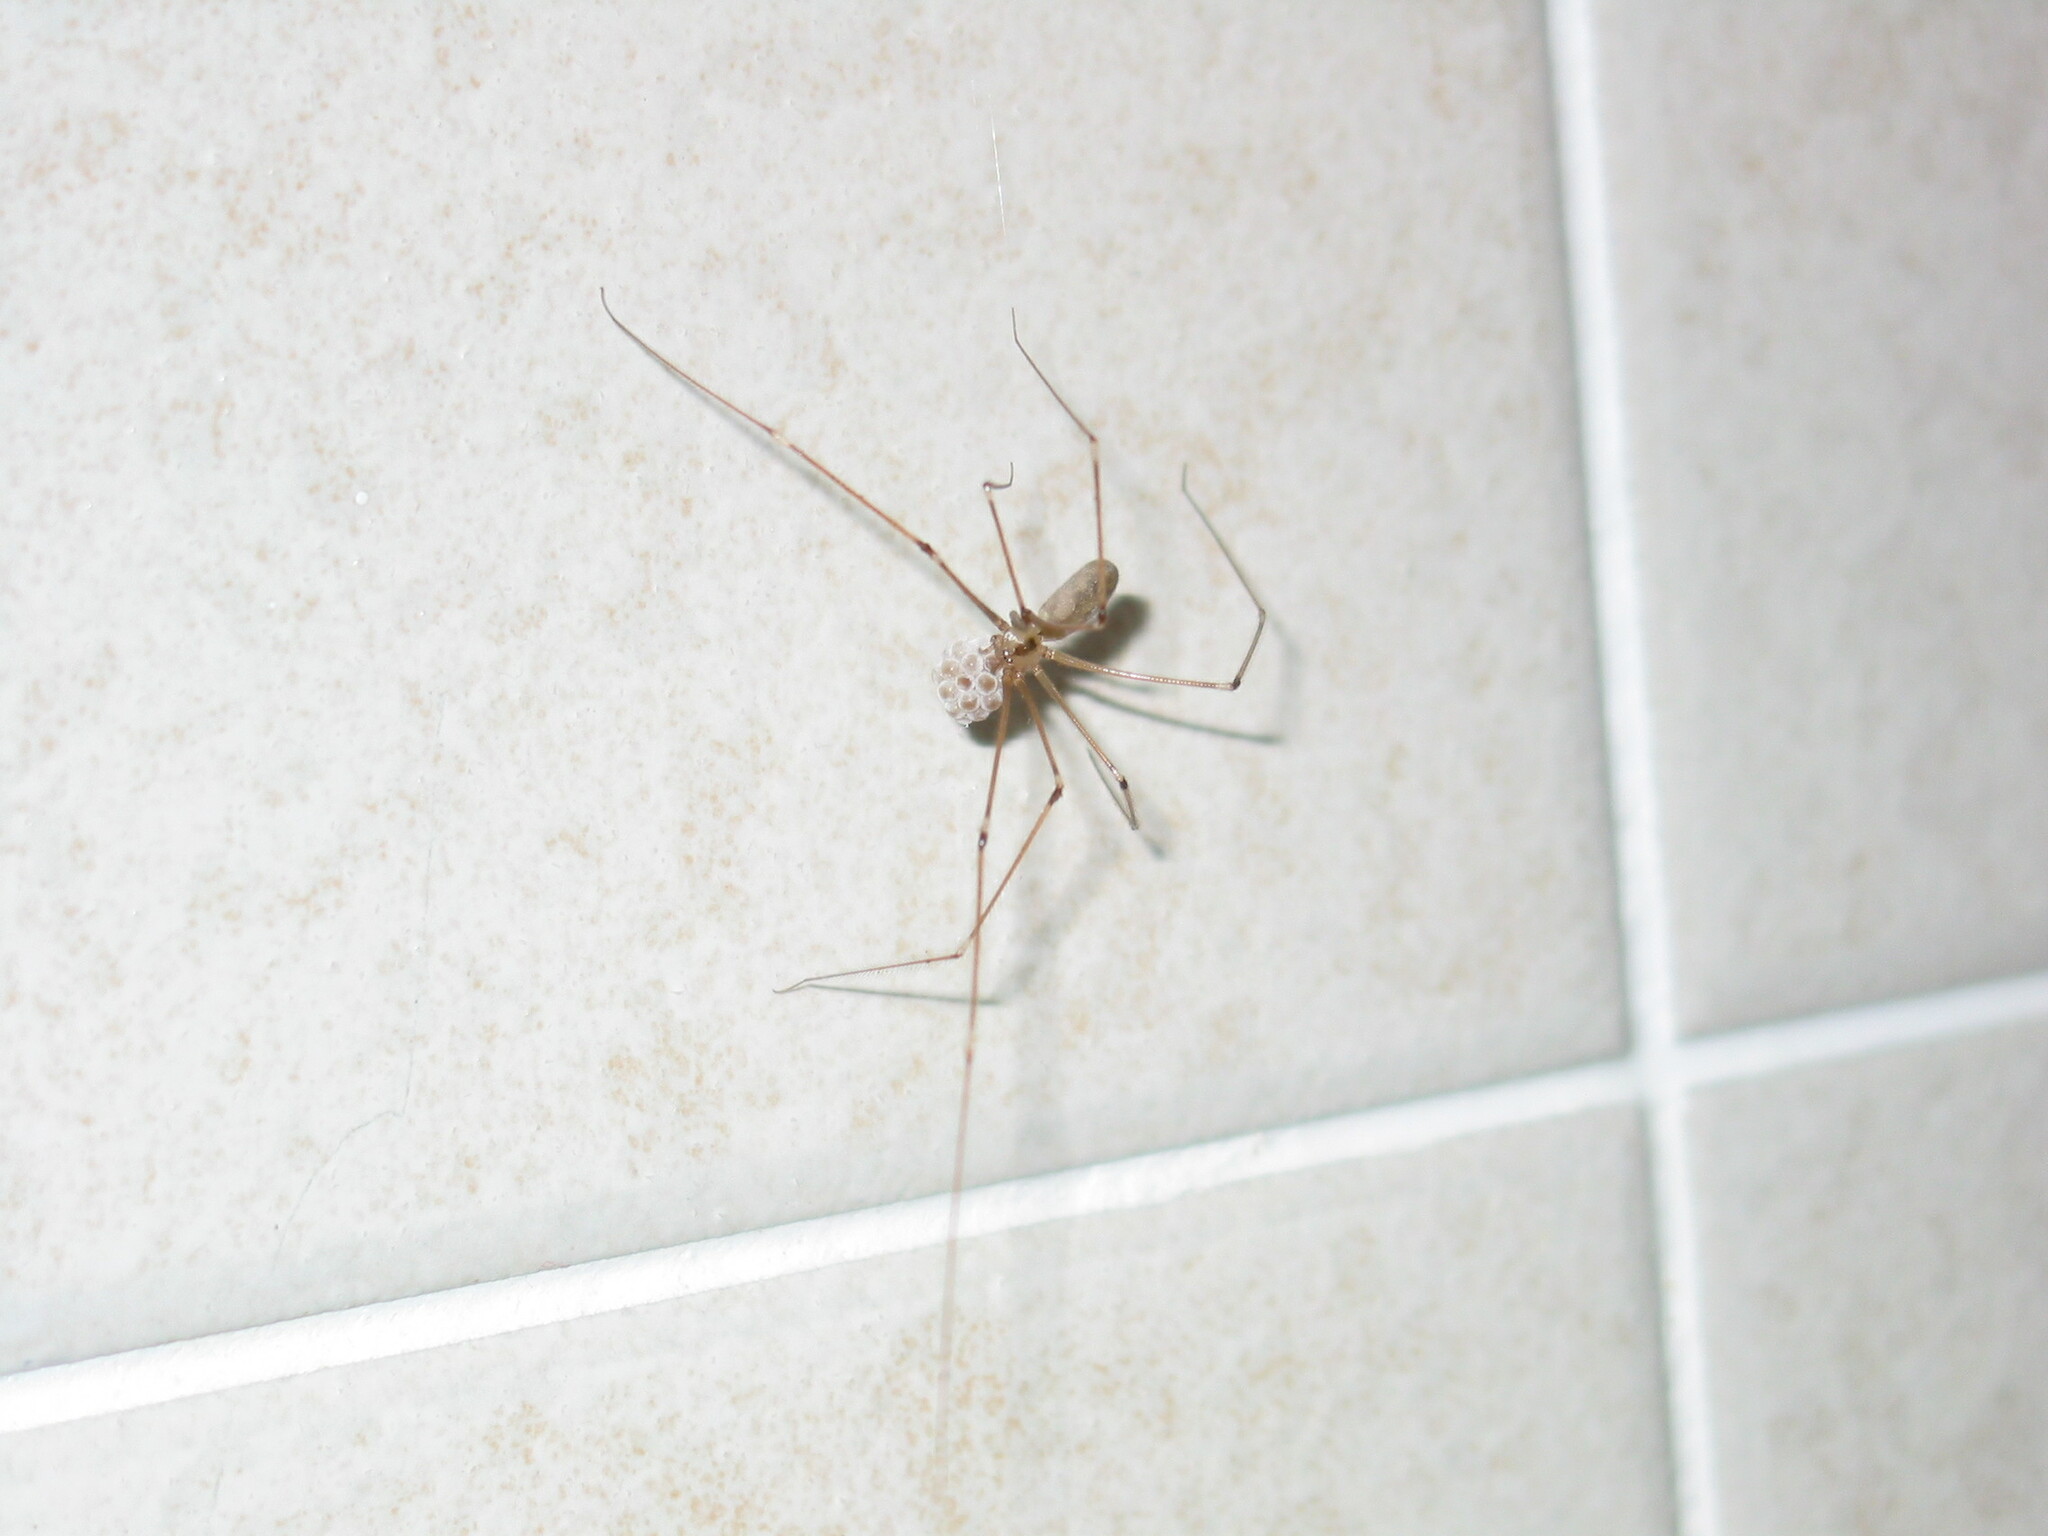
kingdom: Animalia
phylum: Arthropoda
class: Arachnida
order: Araneae
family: Pholcidae
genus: Pholcus
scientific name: Pholcus phalangioides
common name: Longbodied cellar spider
